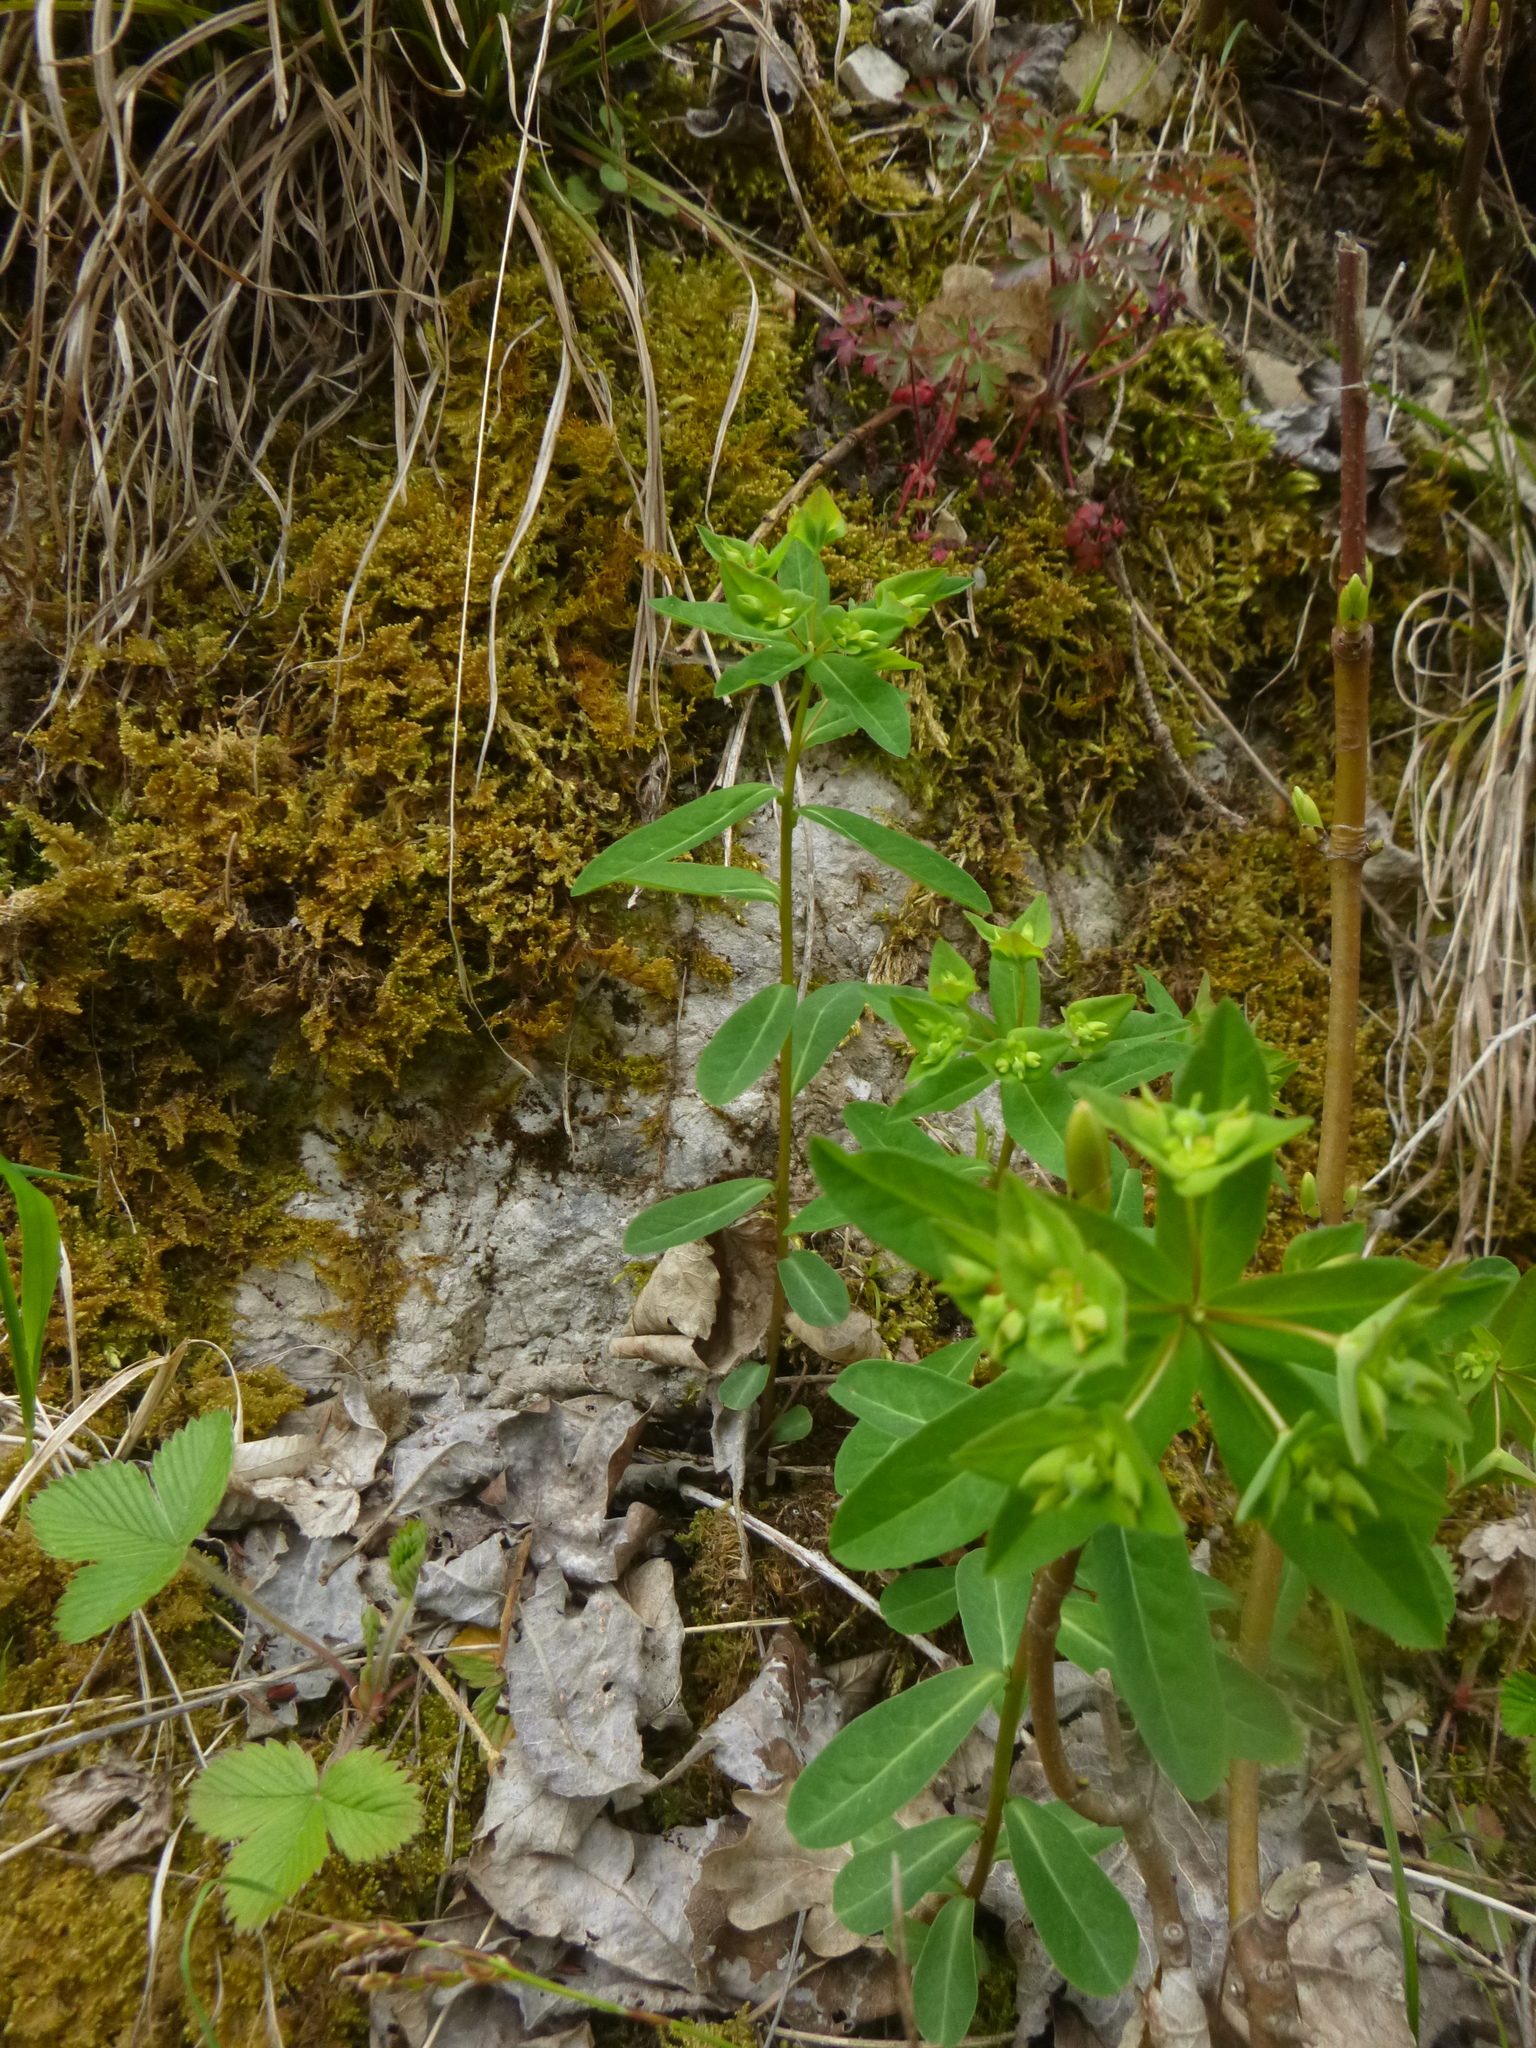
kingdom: Plantae
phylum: Tracheophyta
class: Magnoliopsida
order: Malpighiales
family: Euphorbiaceae
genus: Euphorbia
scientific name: Euphorbia dulcis
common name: Sweet spurge
